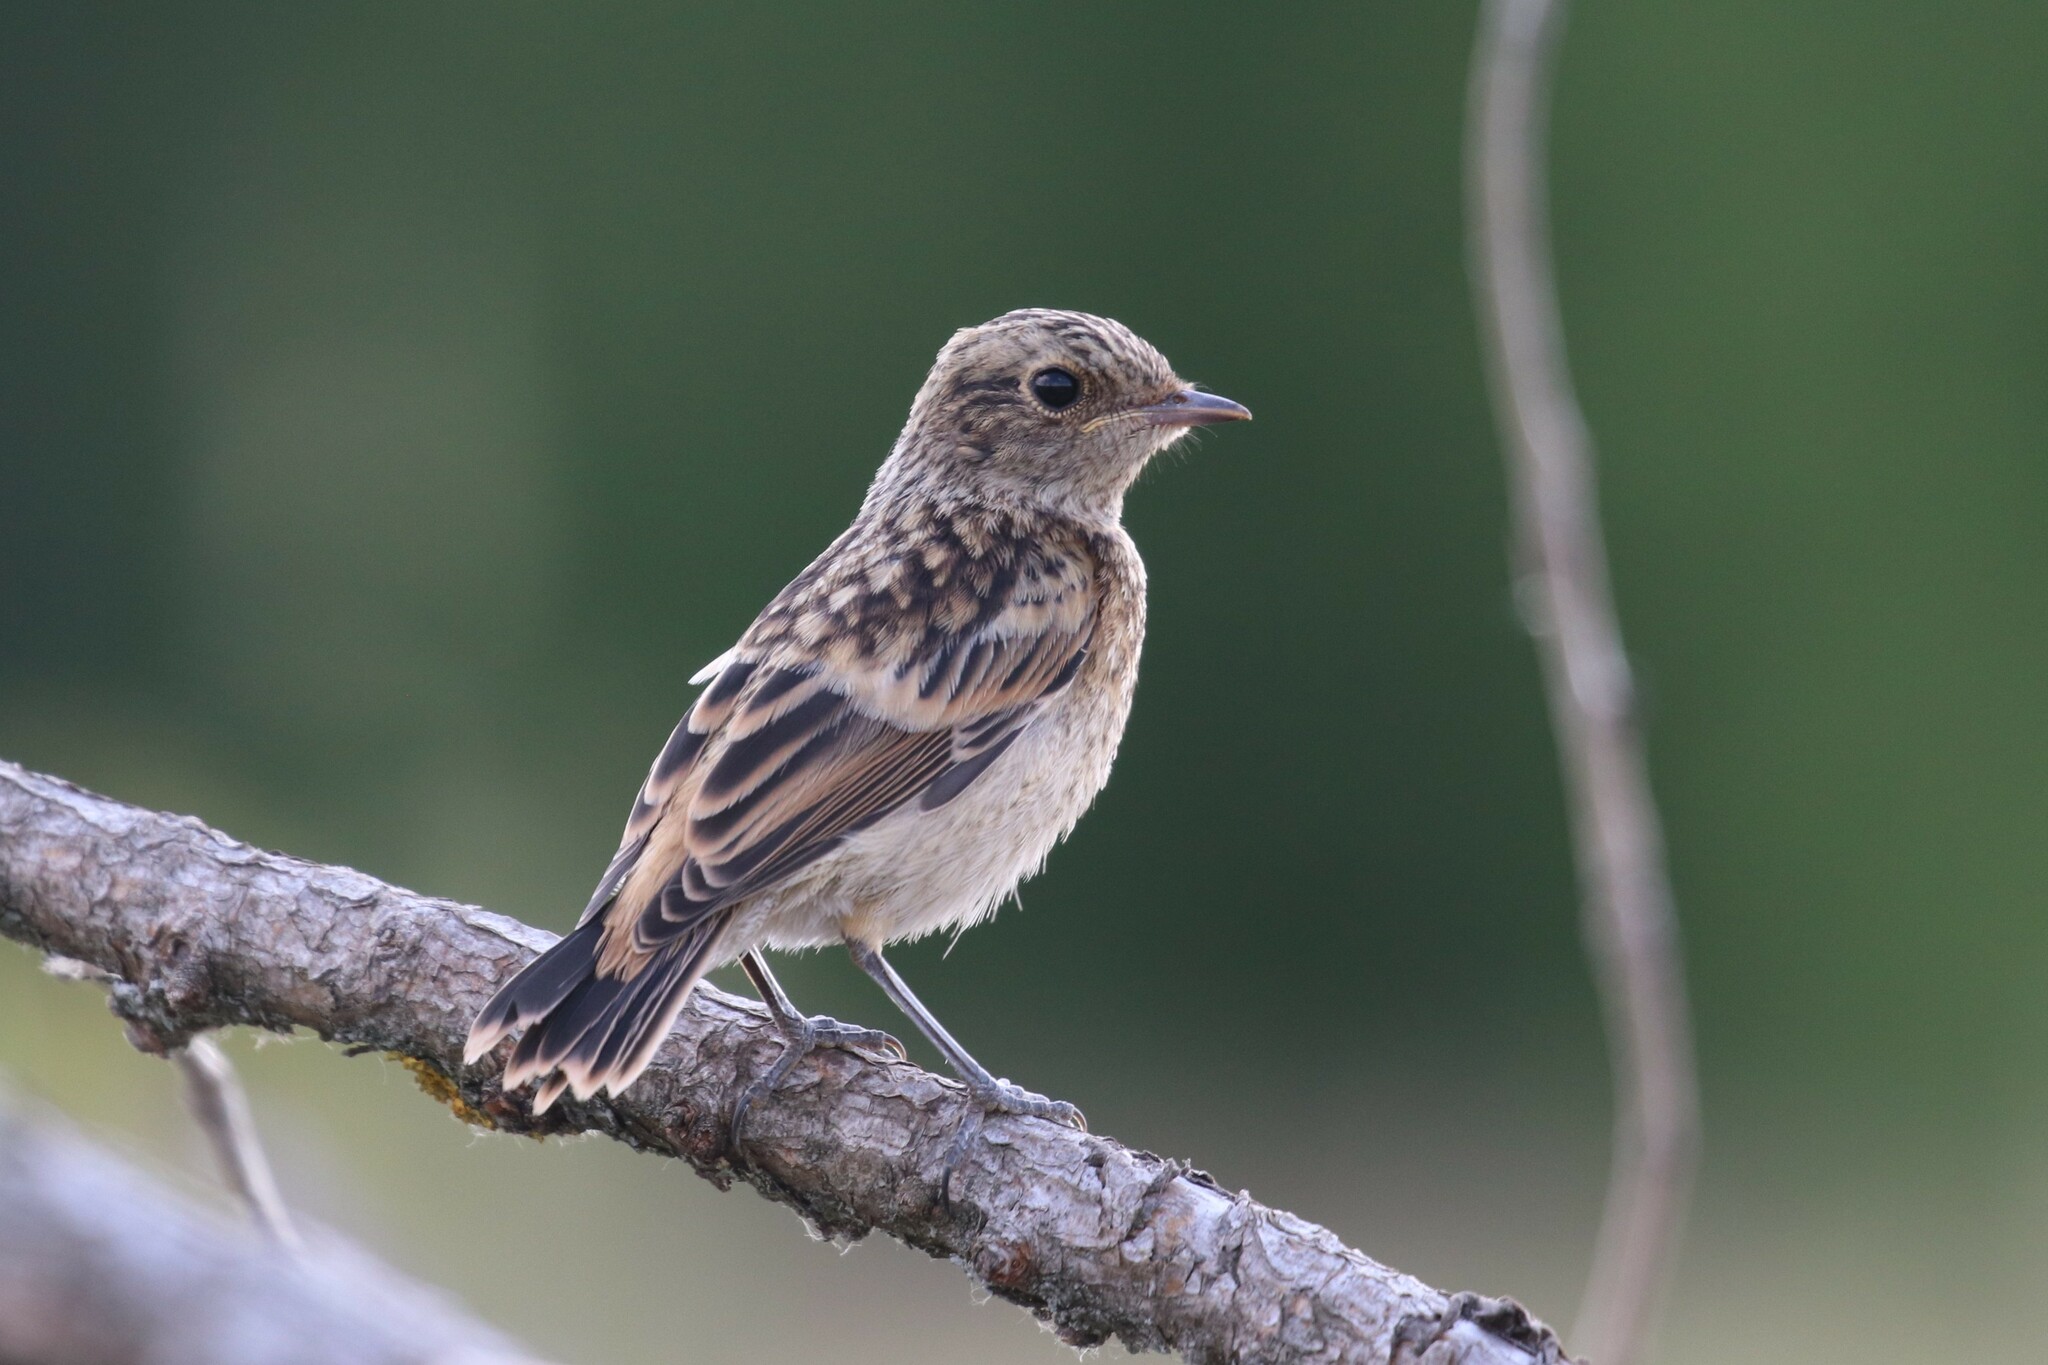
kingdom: Animalia
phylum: Chordata
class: Aves
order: Passeriformes
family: Muscicapidae
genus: Saxicola
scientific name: Saxicola maurus
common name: Siberian stonechat
